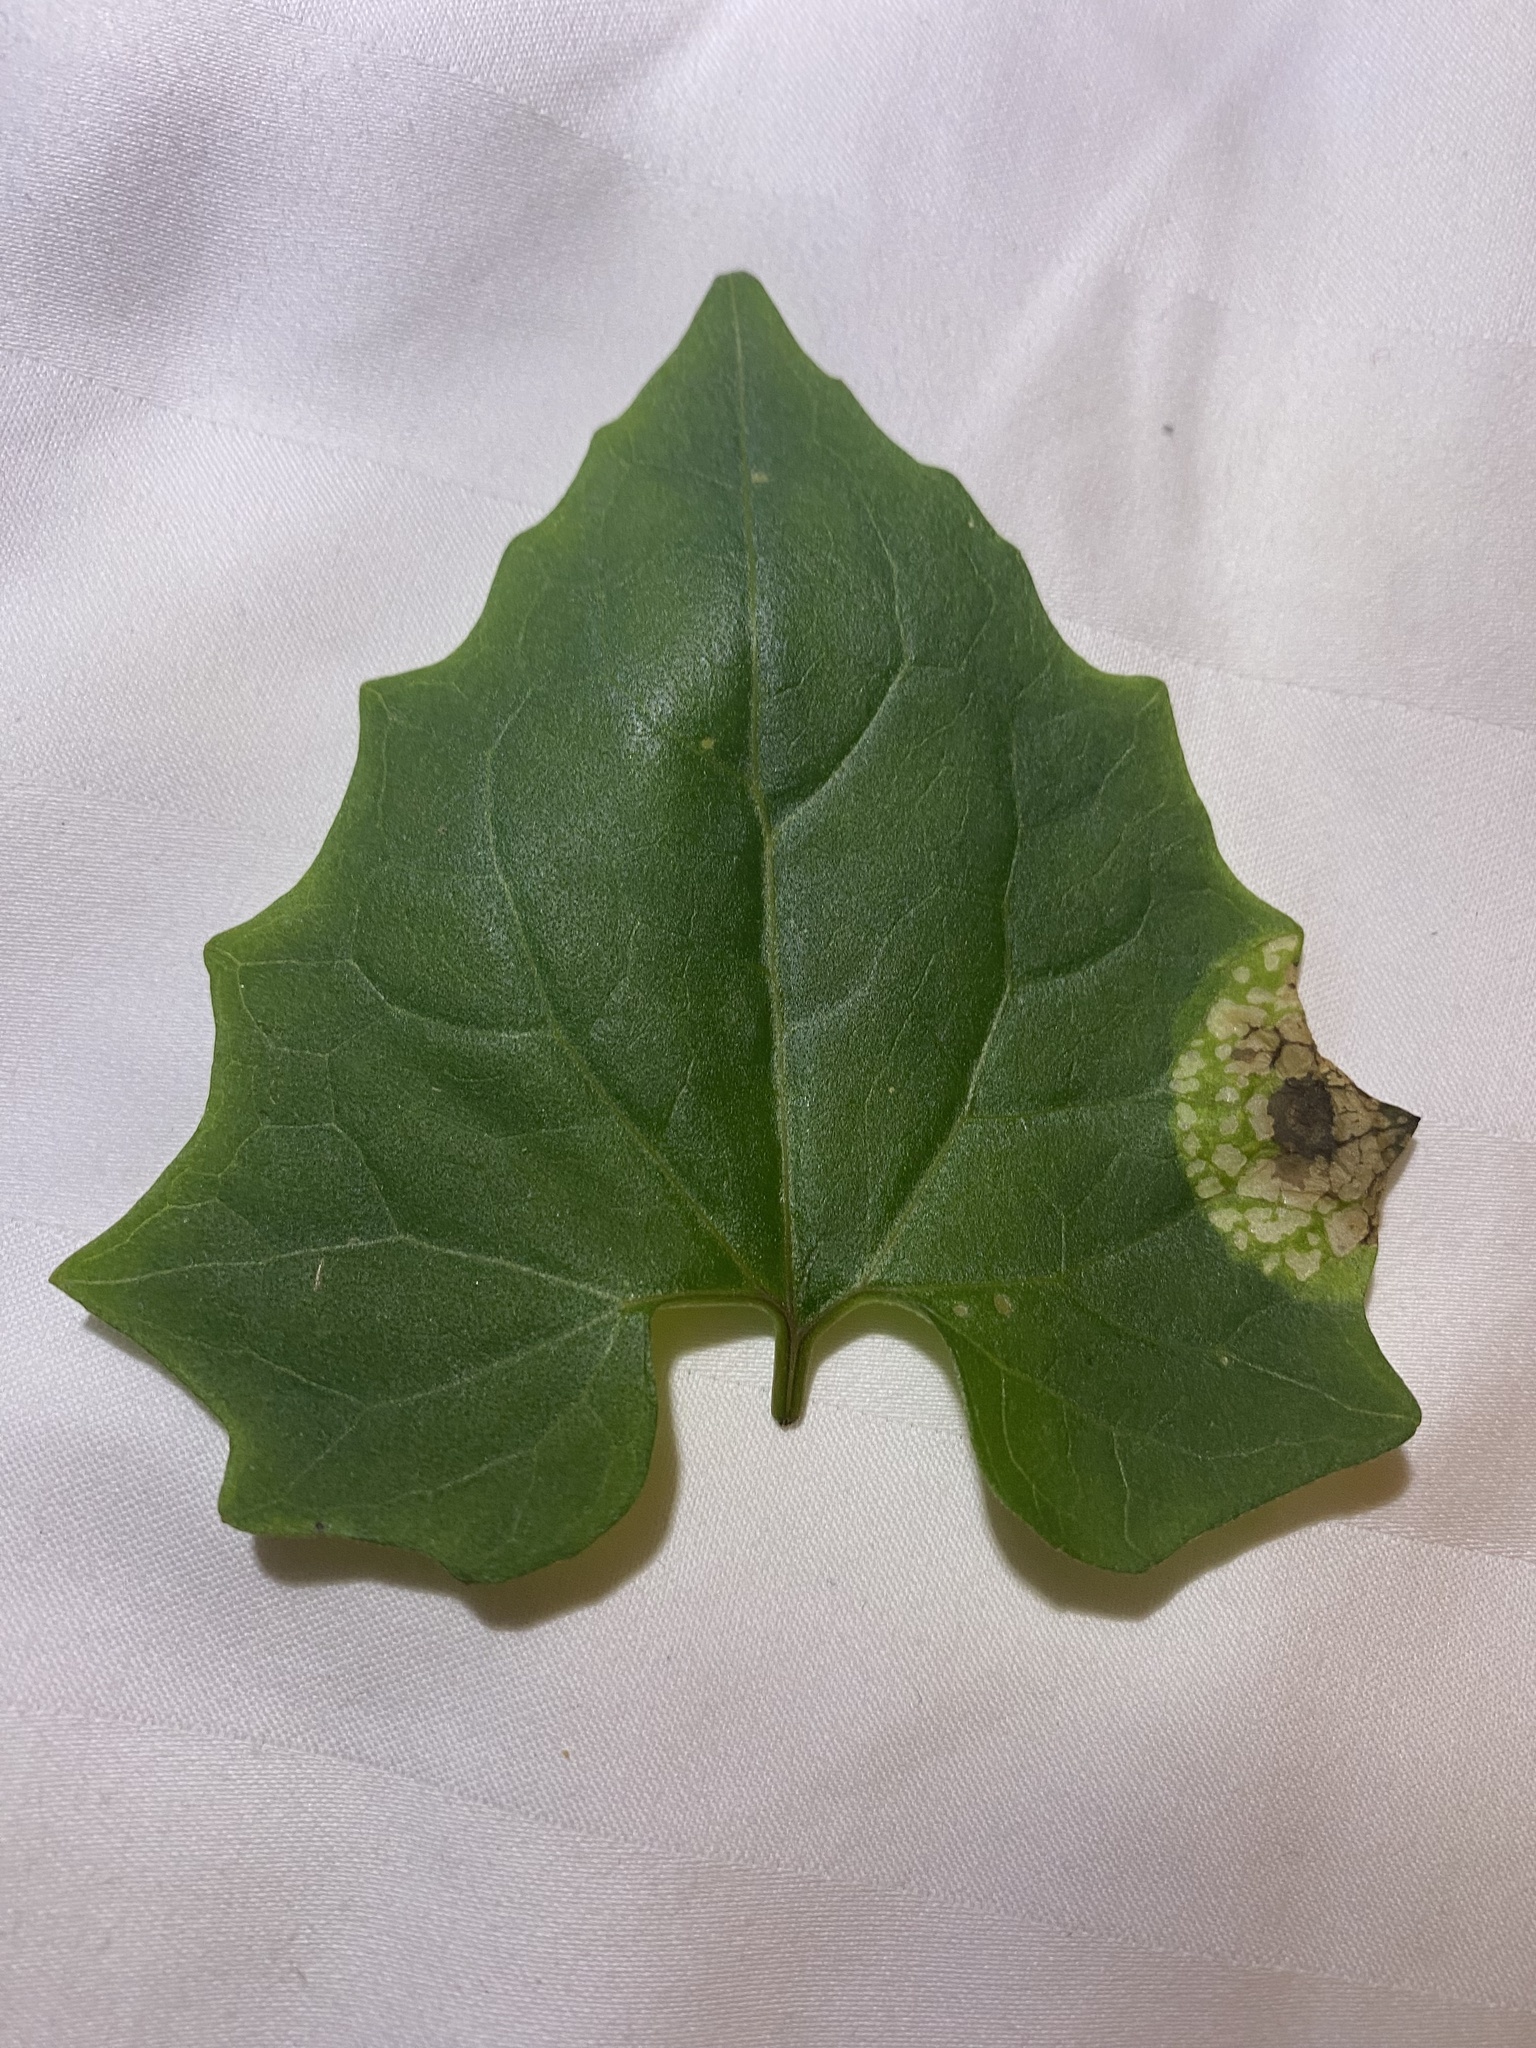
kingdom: Animalia
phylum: Arthropoda
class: Insecta
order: Lepidoptera
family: Gracillariidae
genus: Leucospilapteryx
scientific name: Leucospilapteryx venustella
